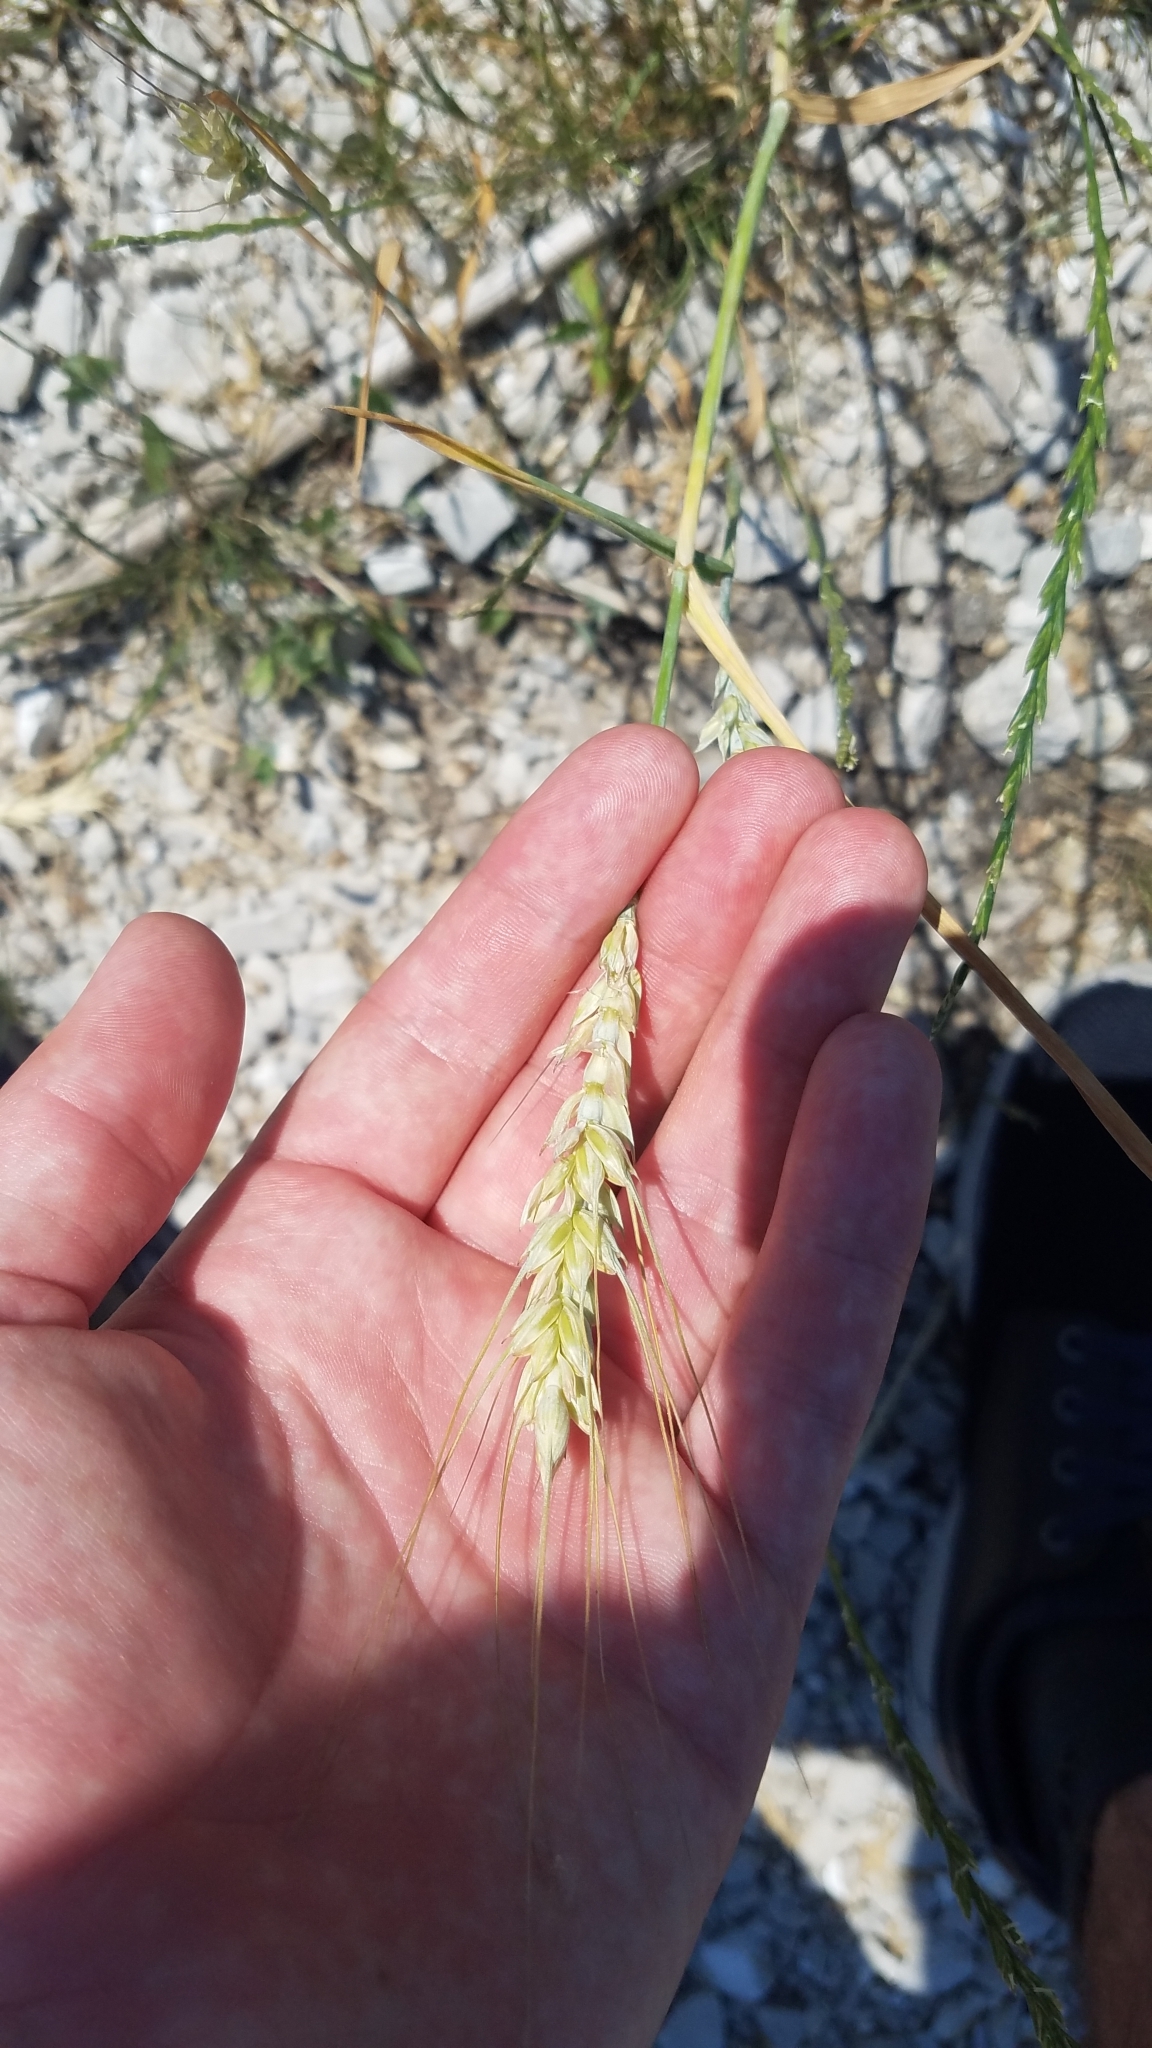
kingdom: Plantae
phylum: Tracheophyta
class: Liliopsida
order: Poales
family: Poaceae
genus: Triticum
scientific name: Triticum aestivum
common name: Common wheat
